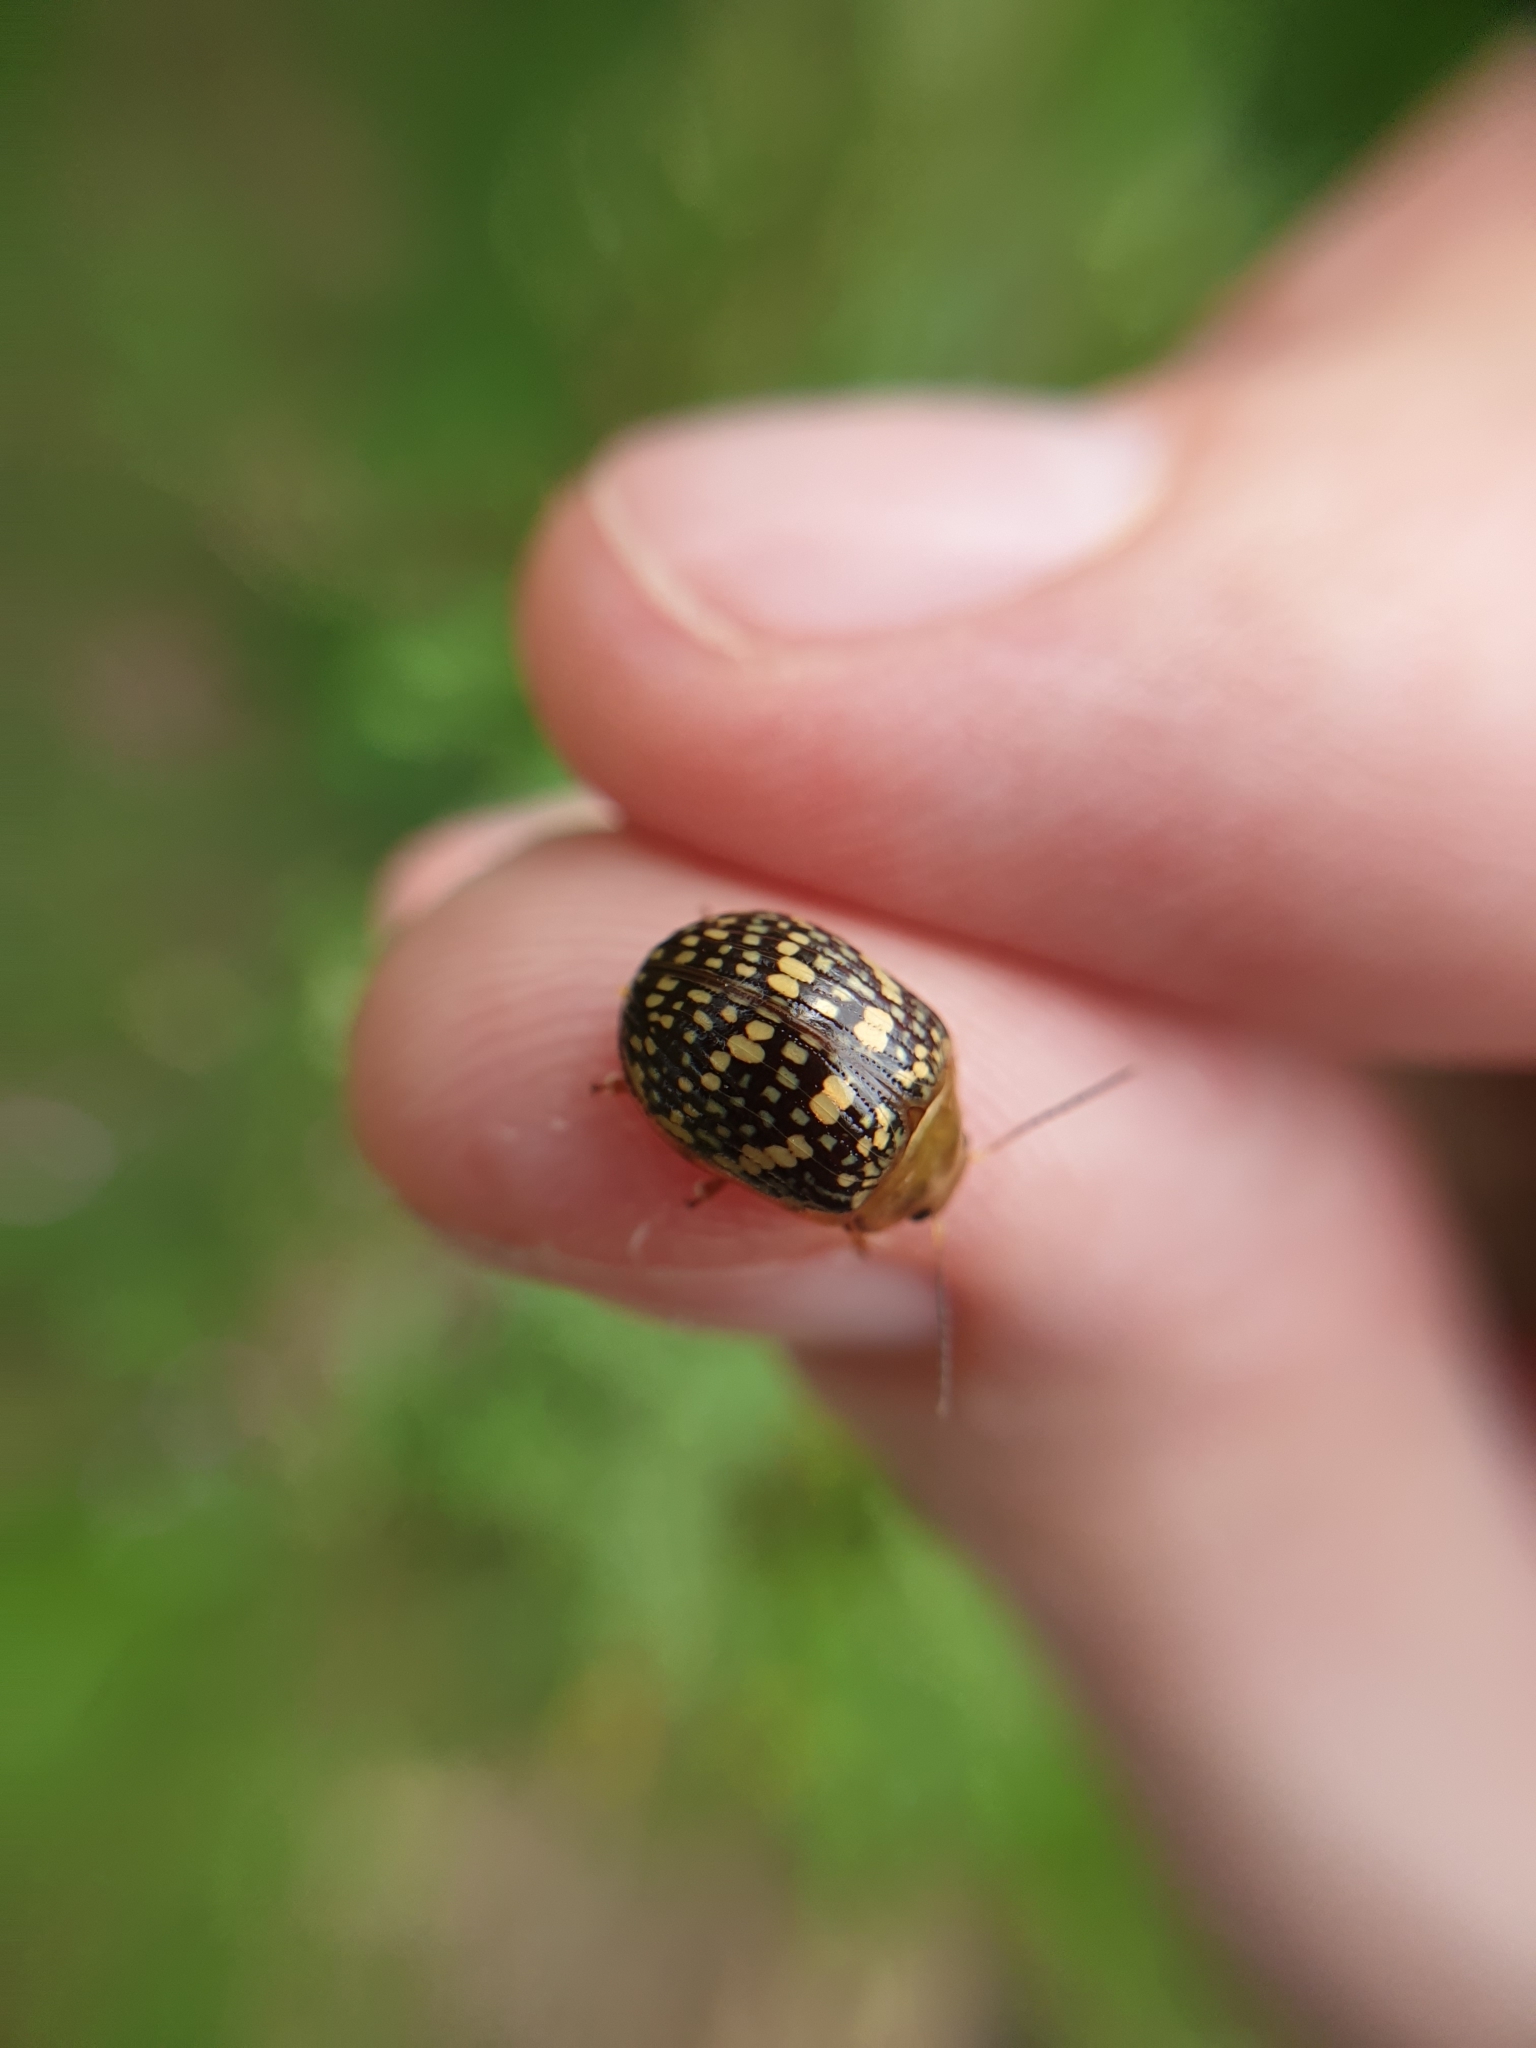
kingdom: Animalia
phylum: Arthropoda
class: Insecta
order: Coleoptera
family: Chrysomelidae
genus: Paropsis
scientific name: Paropsis
